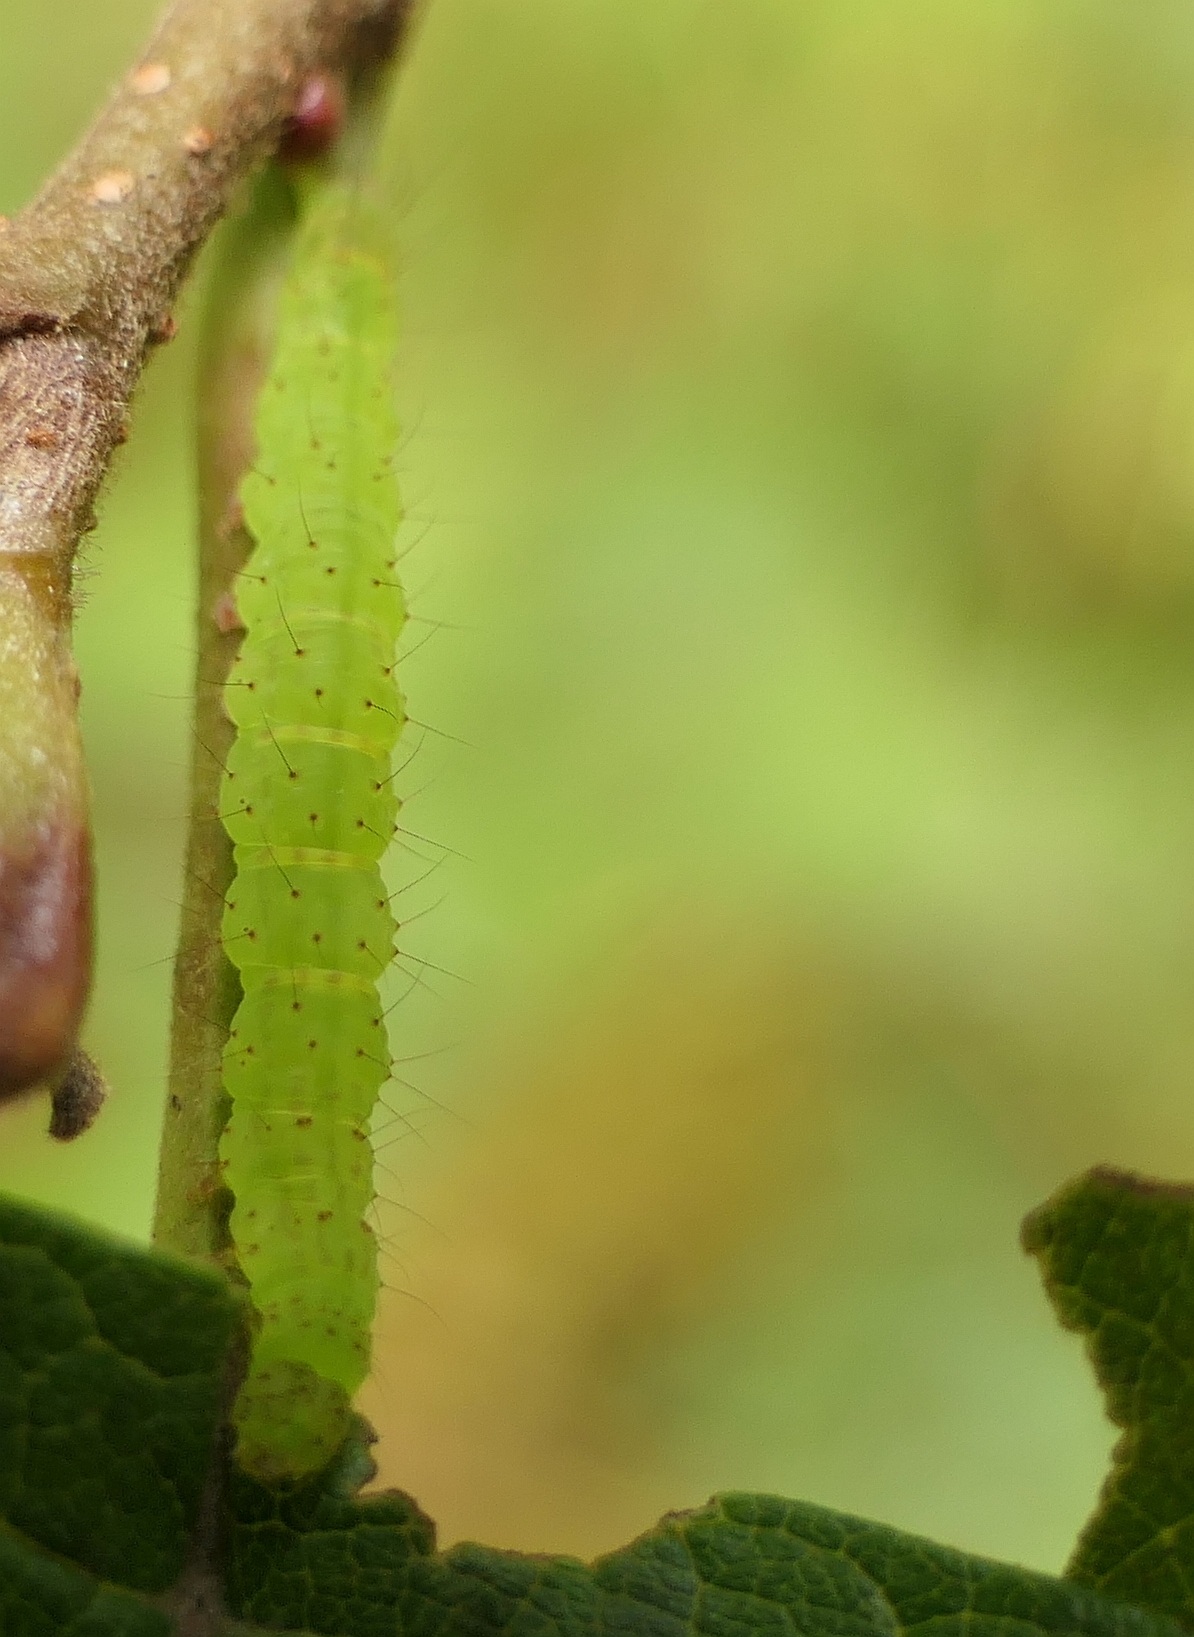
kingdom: Animalia
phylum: Arthropoda
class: Insecta
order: Lepidoptera
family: Erebidae
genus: Hypena
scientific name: Hypena baltimoralis
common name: Baltimore snout
